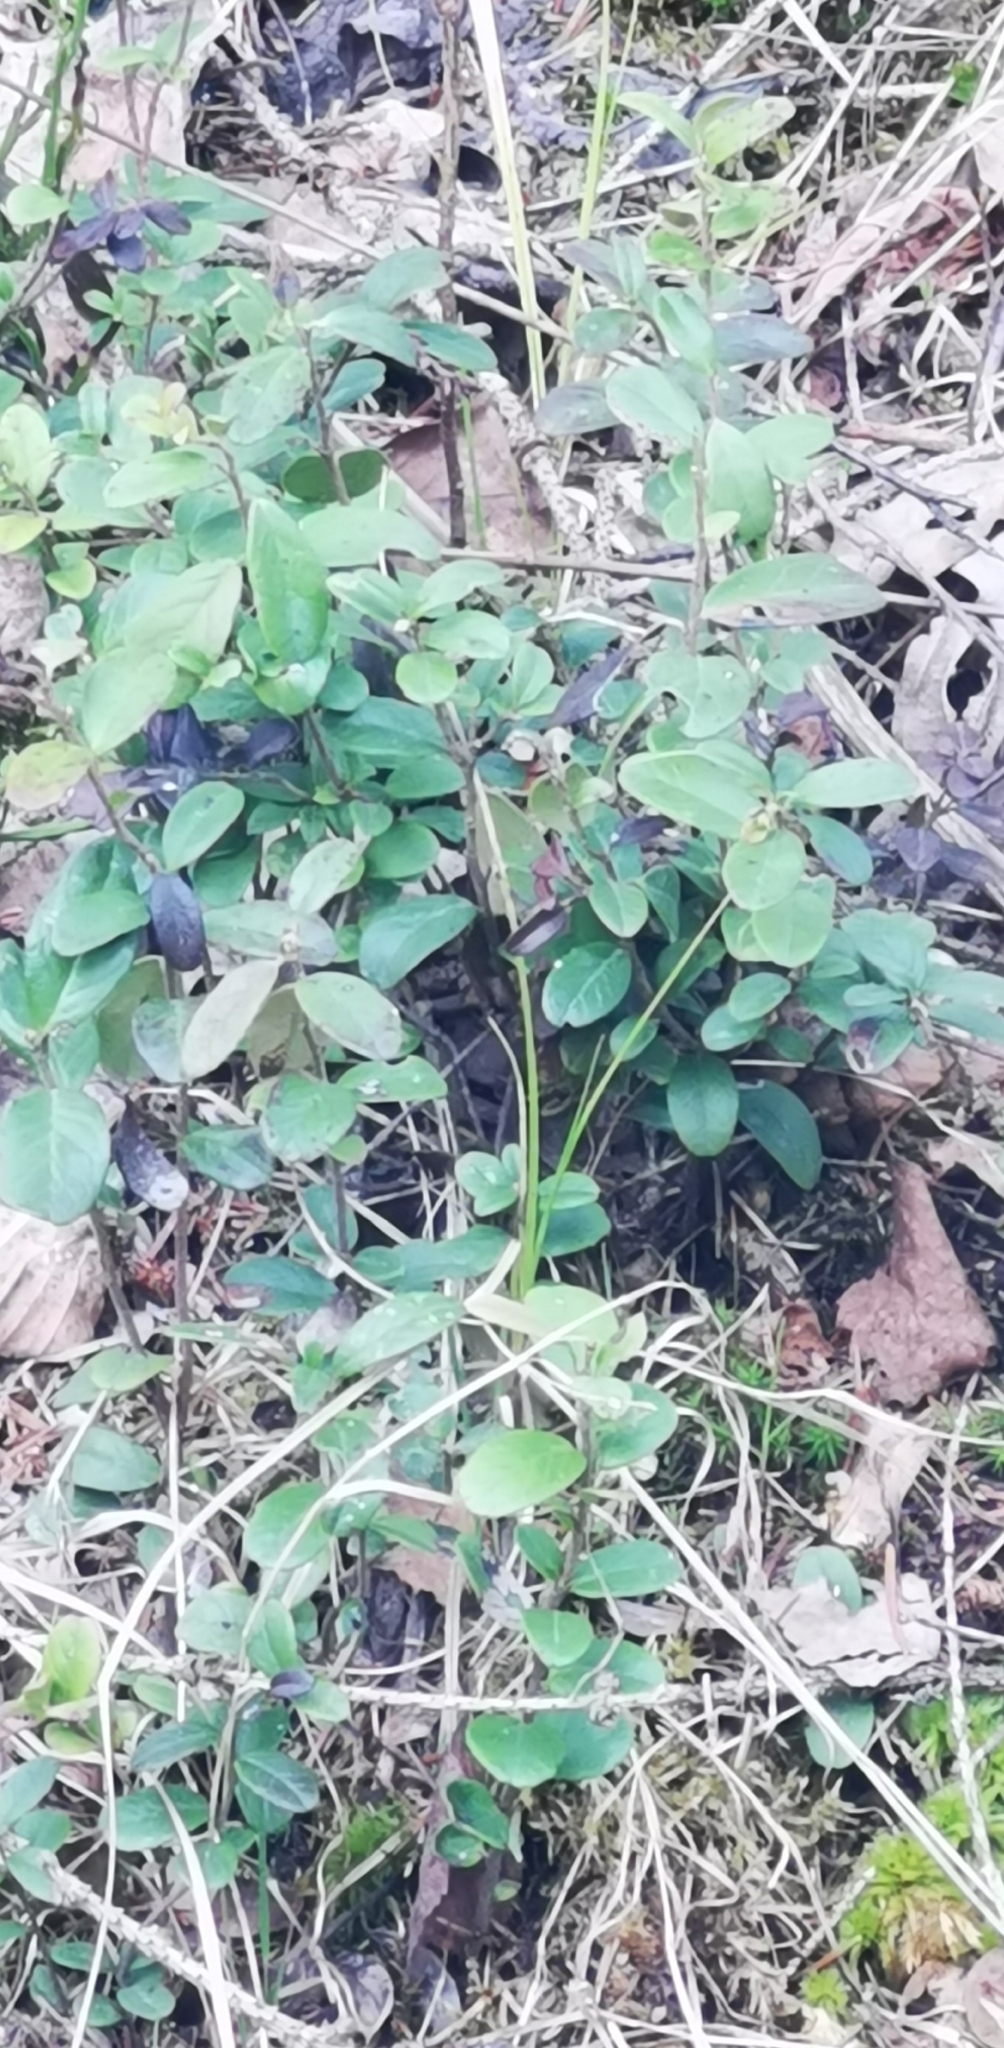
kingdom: Plantae
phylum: Tracheophyta
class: Magnoliopsida
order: Ericales
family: Ericaceae
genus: Vaccinium
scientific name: Vaccinium vitis-idaea
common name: Cowberry
